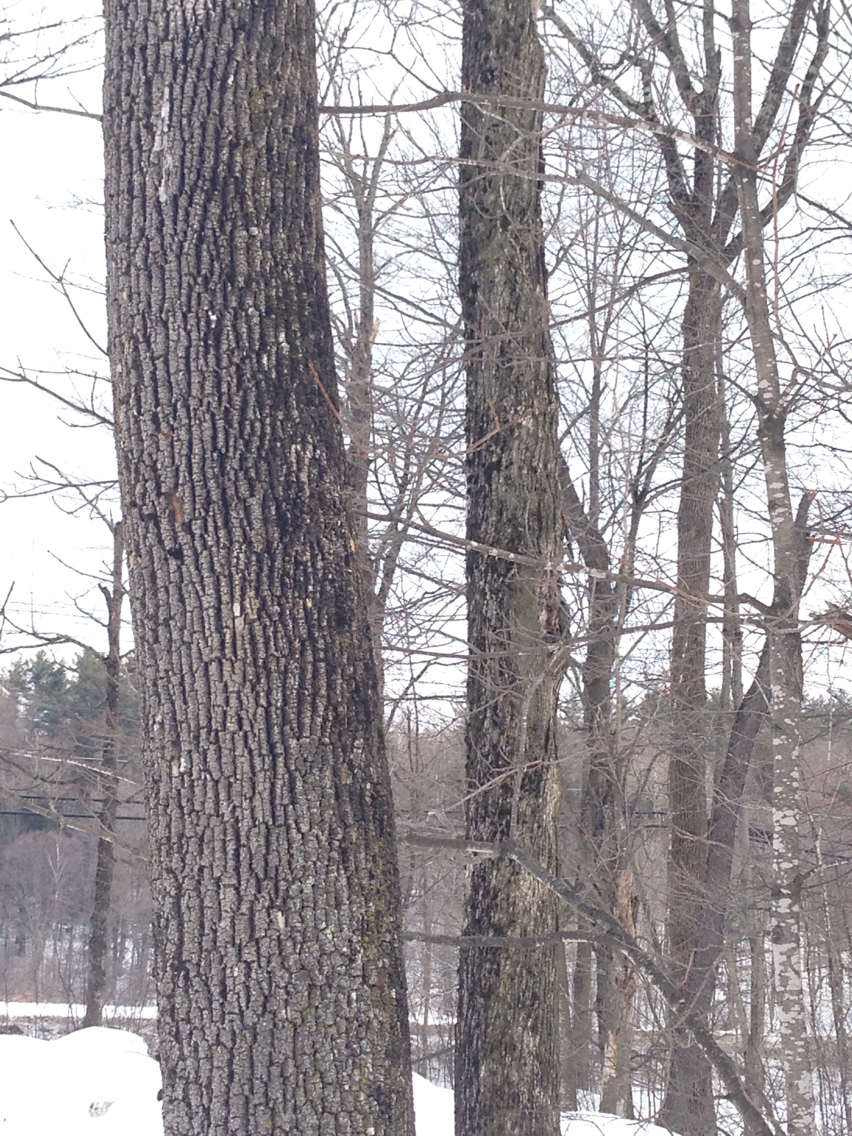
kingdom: Plantae
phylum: Tracheophyta
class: Magnoliopsida
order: Lamiales
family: Oleaceae
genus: Fraxinus
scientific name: Fraxinus americana
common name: White ash
